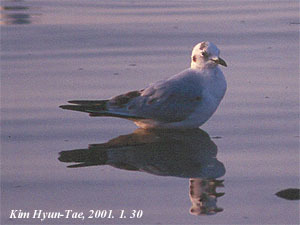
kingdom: Animalia
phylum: Chordata
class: Aves
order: Charadriiformes
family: Laridae
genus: Chroicocephalus
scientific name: Chroicocephalus saundersi
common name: Saunders's gull
